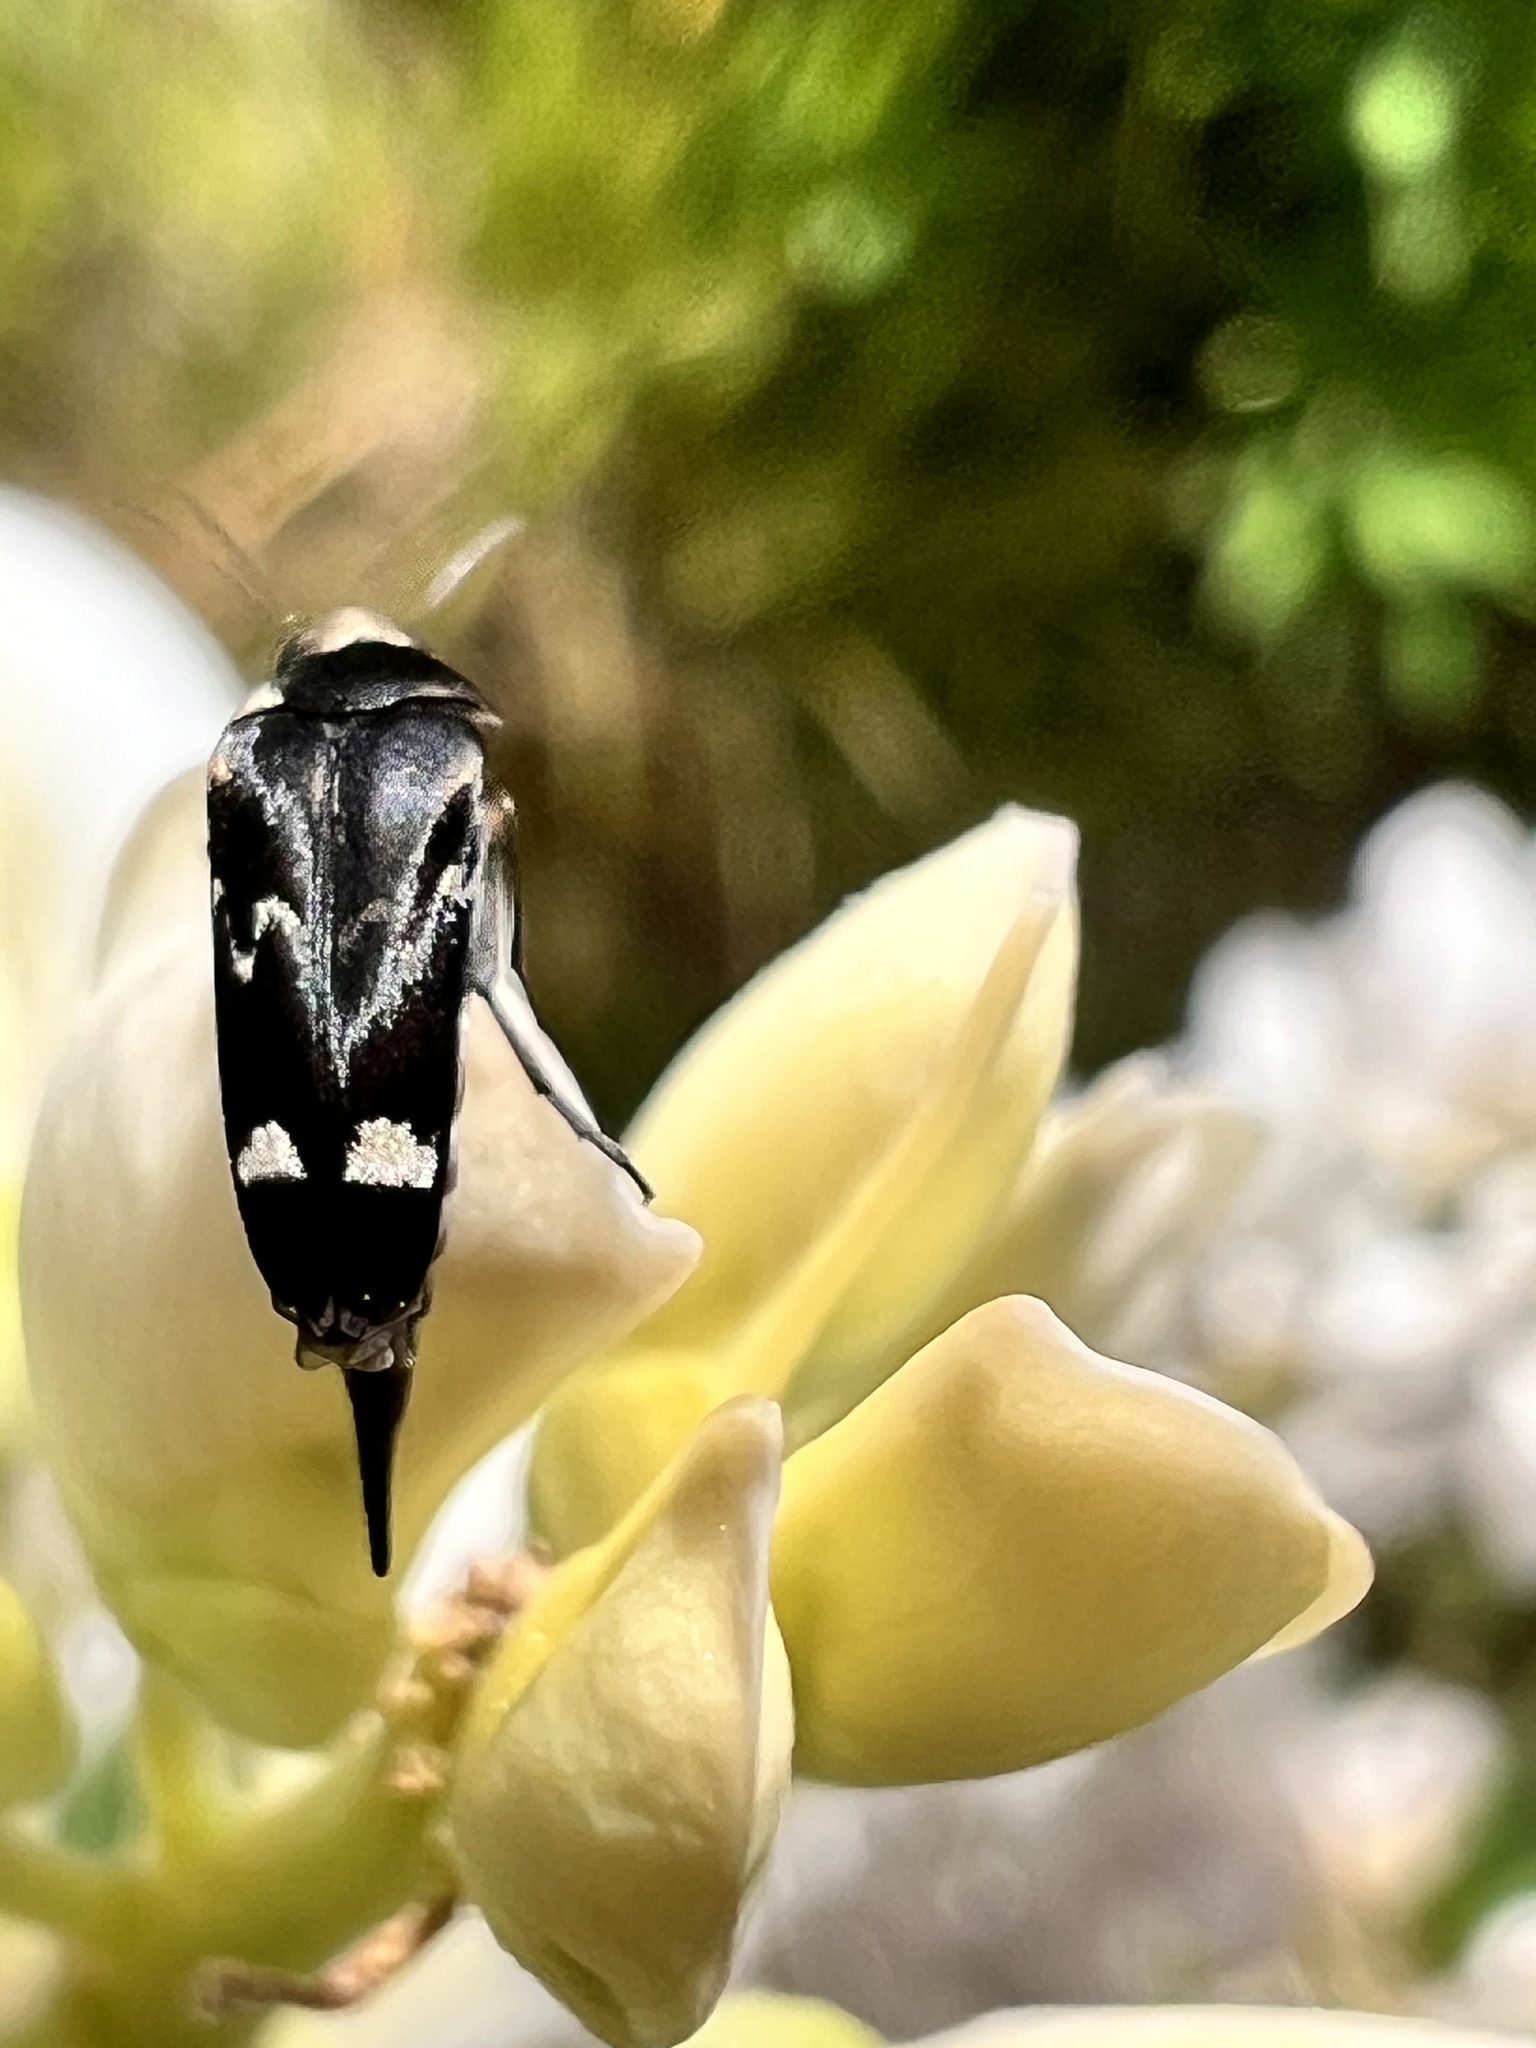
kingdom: Animalia
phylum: Arthropoda
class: Insecta
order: Coleoptera
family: Mordellidae
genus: Mordella
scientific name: Mordella
